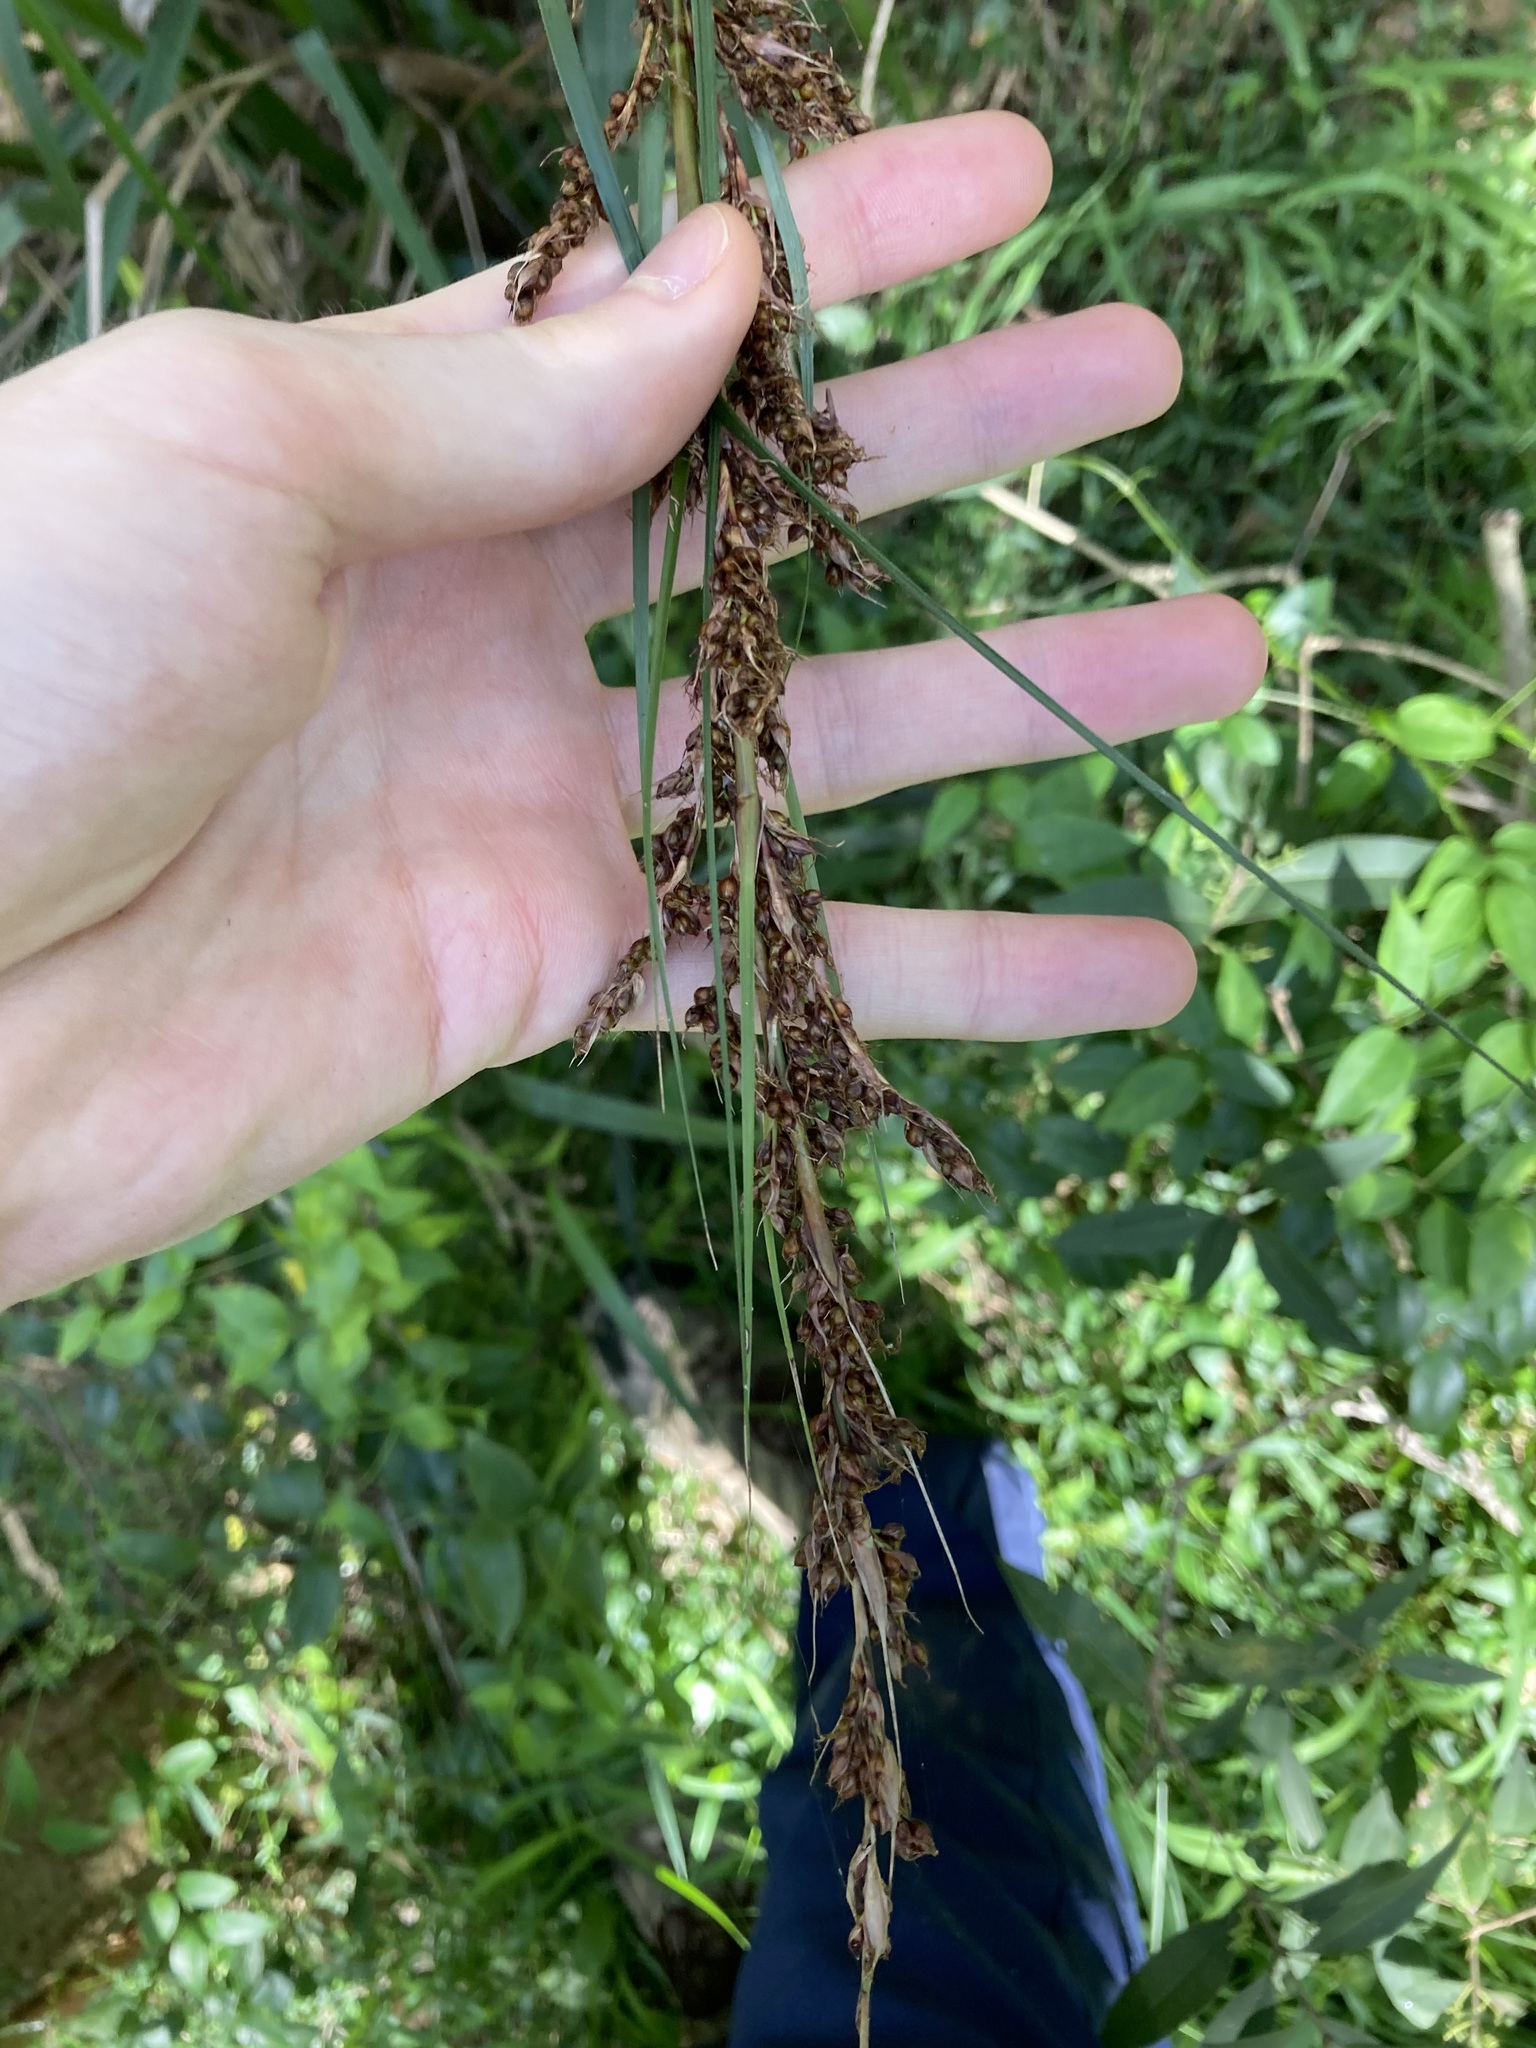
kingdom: Plantae
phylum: Tracheophyta
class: Liliopsida
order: Poales
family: Cyperaceae
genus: Gahnia
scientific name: Gahnia melanocarpa
